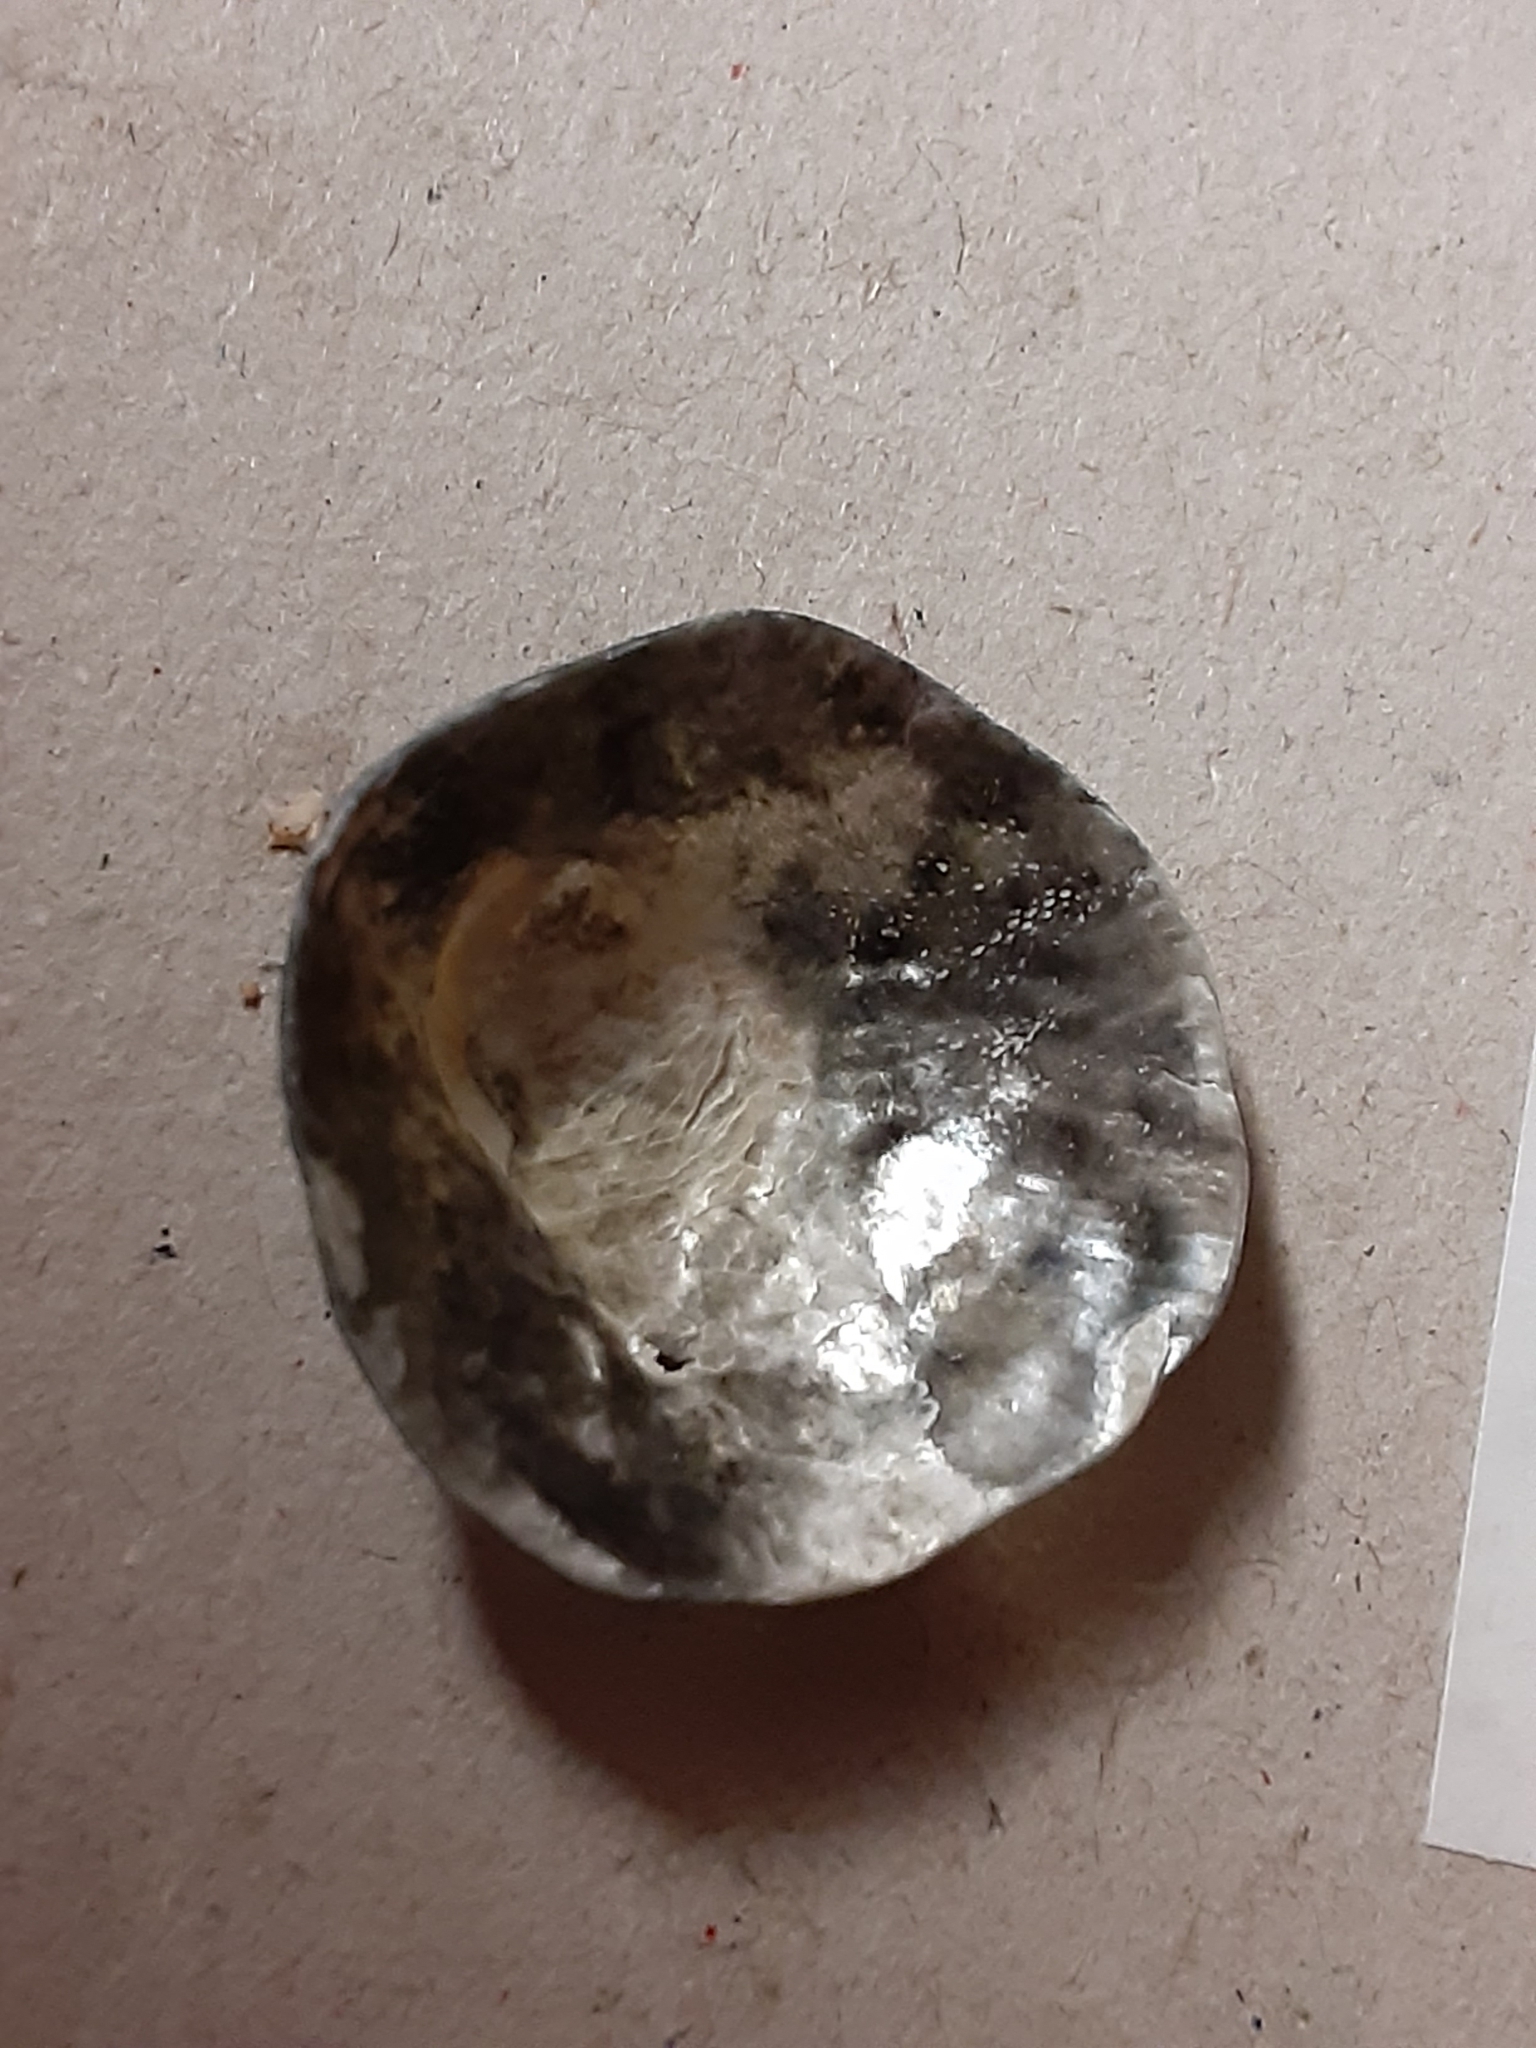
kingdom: Animalia
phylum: Mollusca
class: Bivalvia
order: Pectinida
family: Anomiidae
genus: Anomia
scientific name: Anomia simplex
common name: Common jingle shell
